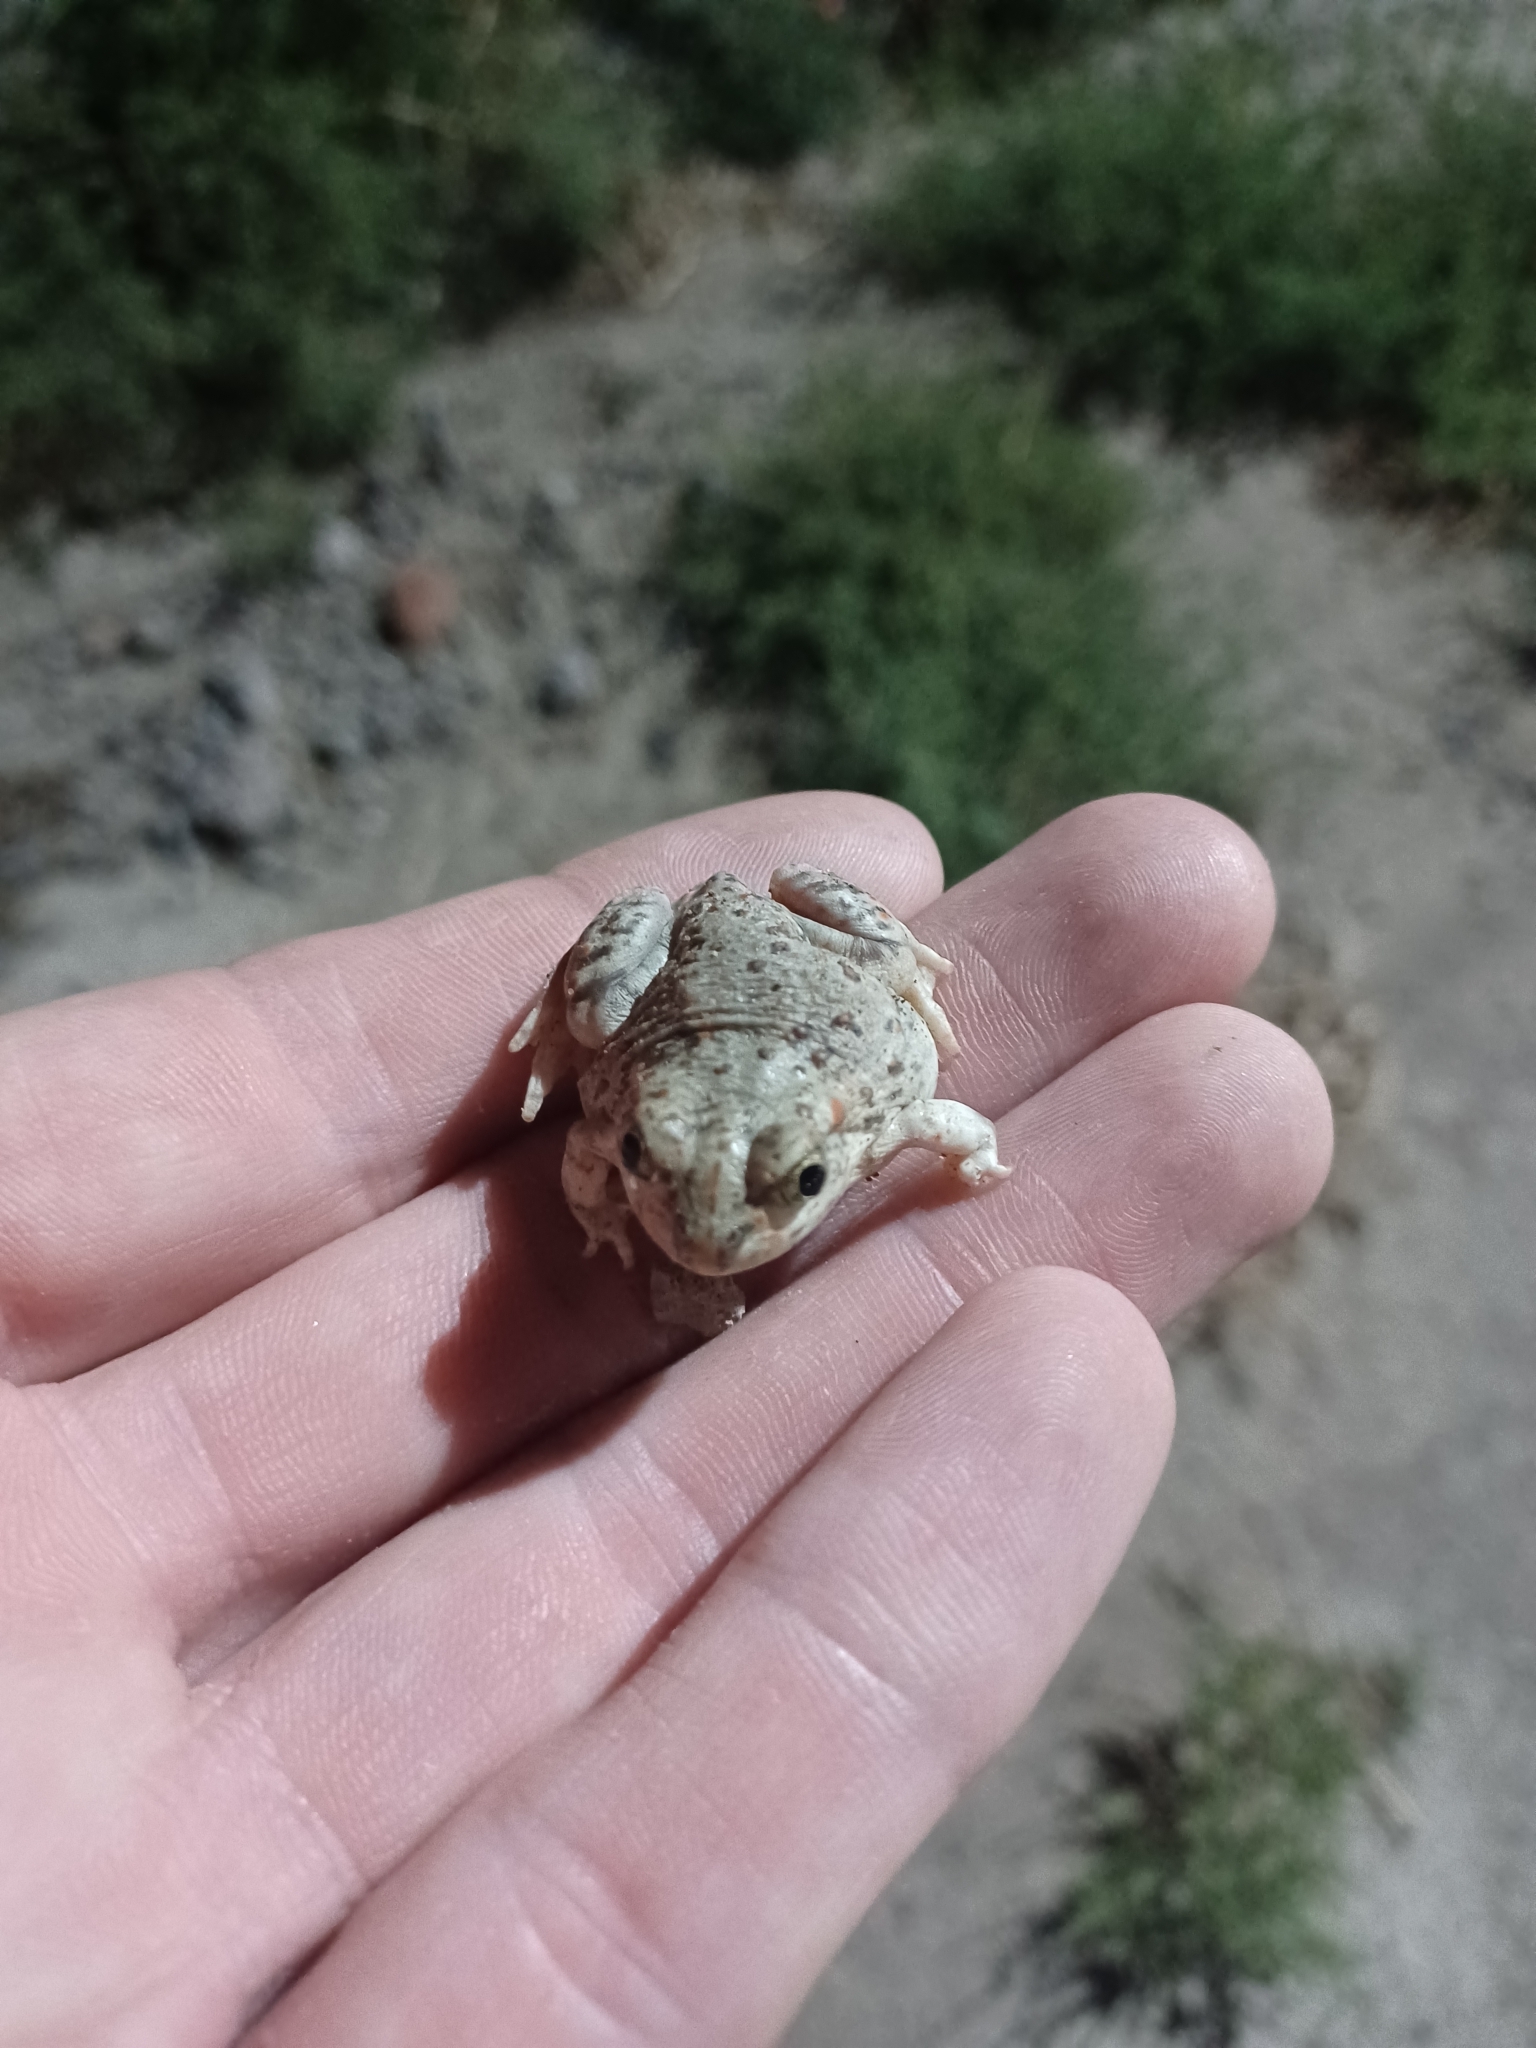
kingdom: Animalia
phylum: Chordata
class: Amphibia
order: Anura
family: Scaphiopodidae
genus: Spea
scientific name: Spea bombifrons
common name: Plains spadefoot
